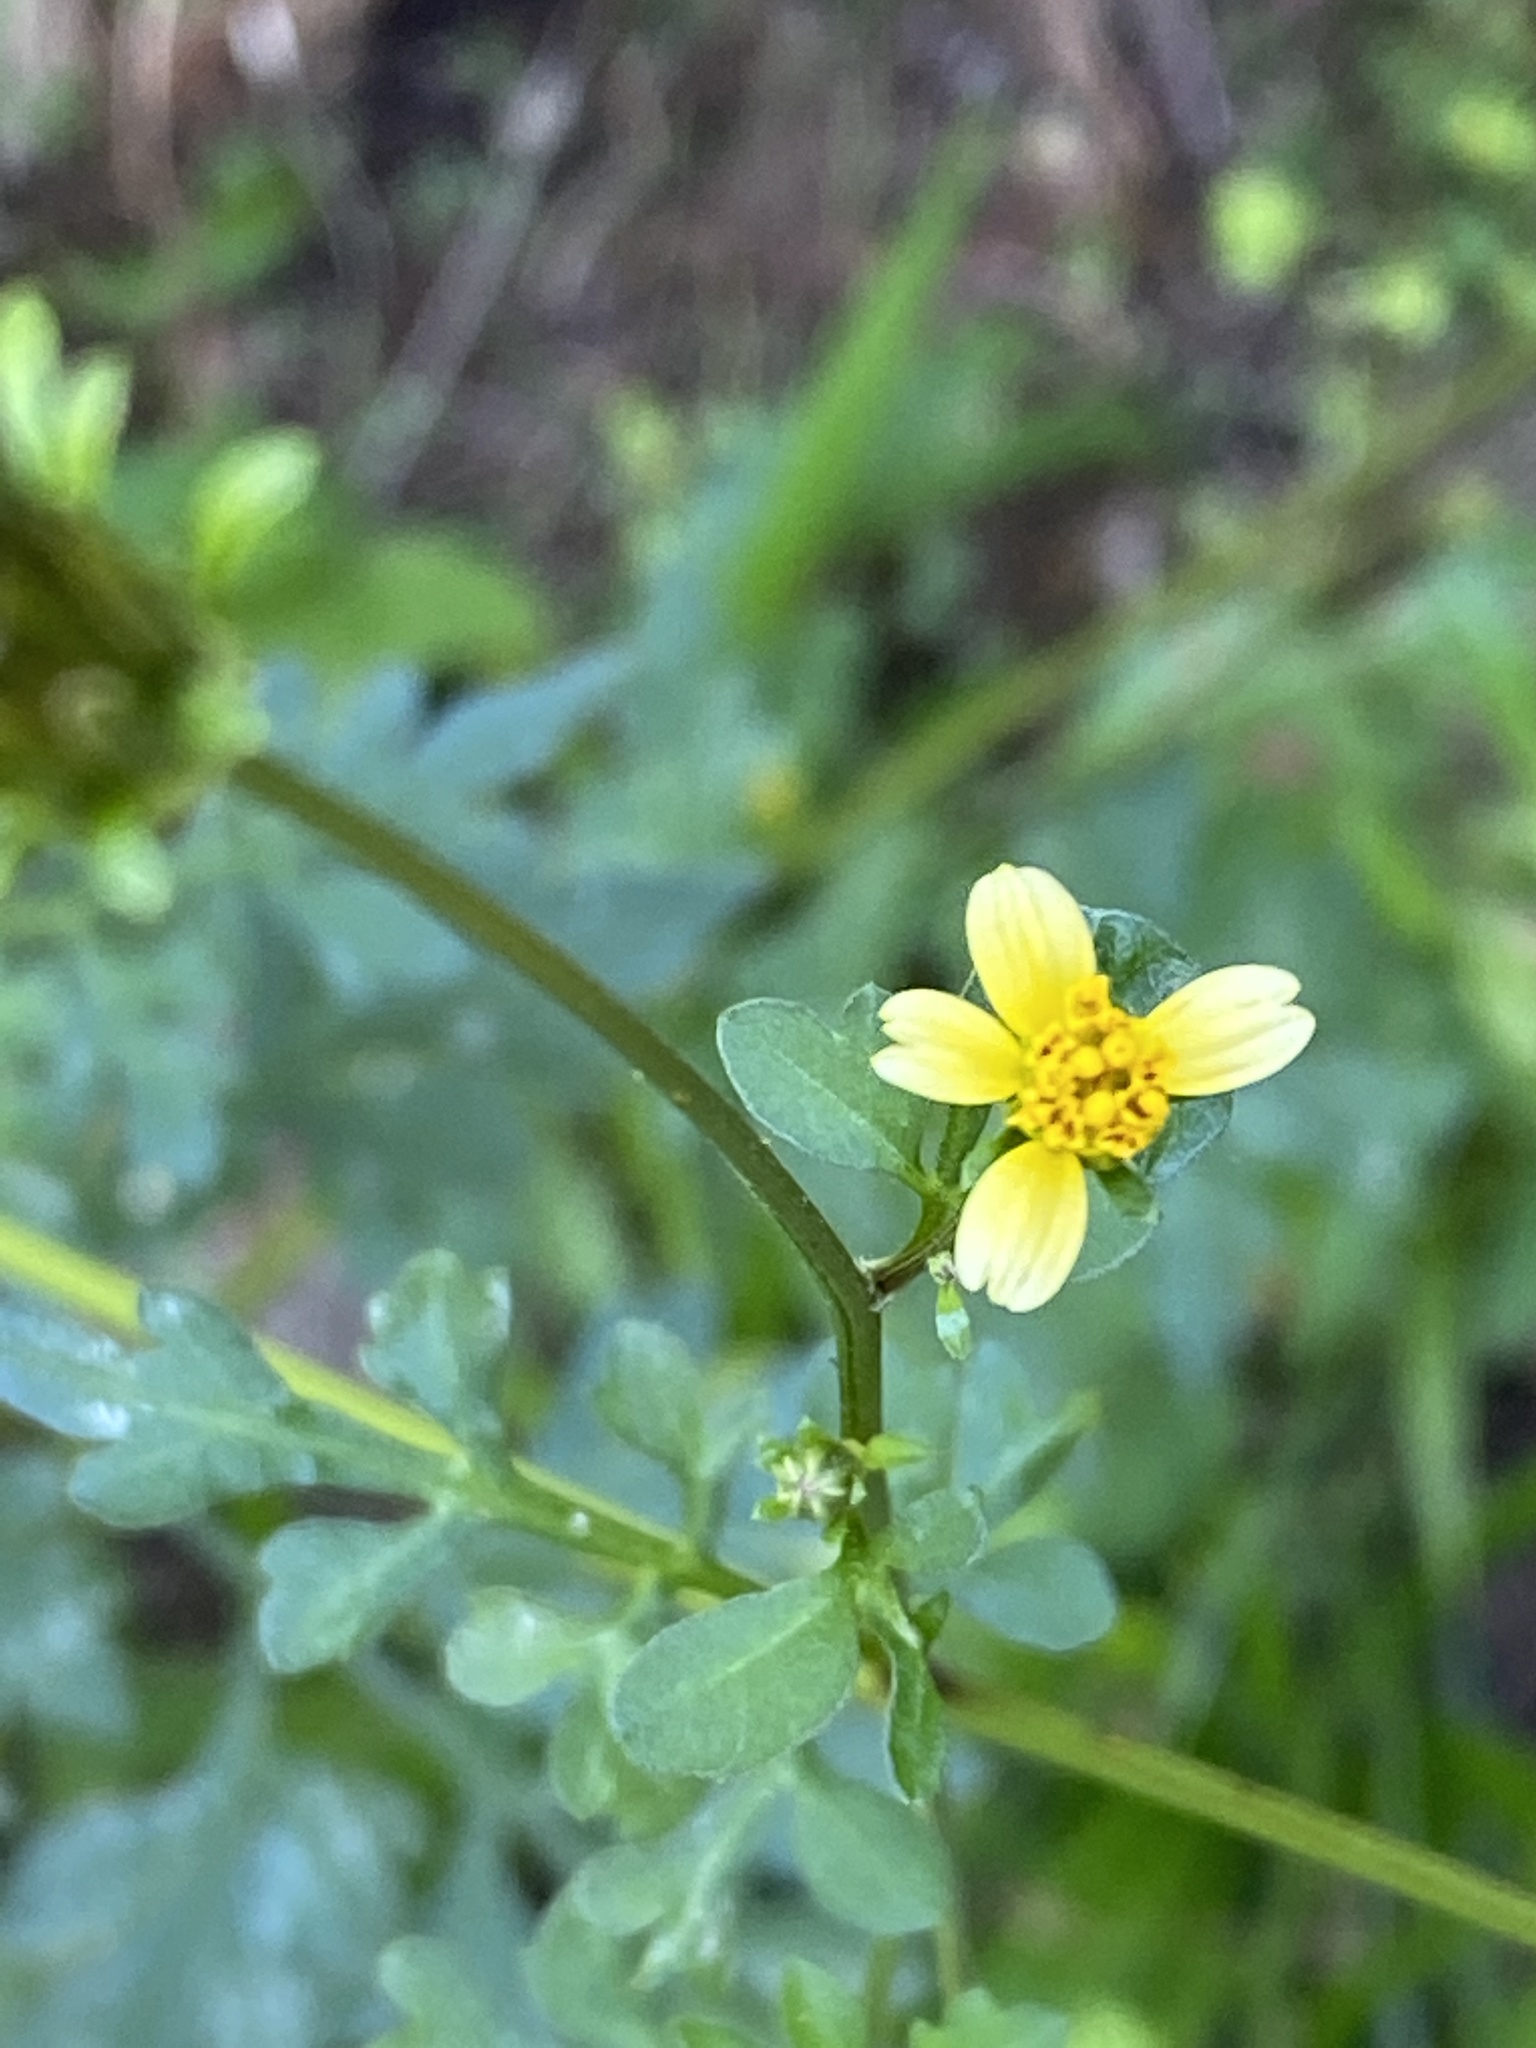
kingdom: Plantae
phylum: Tracheophyta
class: Magnoliopsida
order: Asterales
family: Asteraceae
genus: Bidens
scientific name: Bidens bipinnata
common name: Spanish-needles
